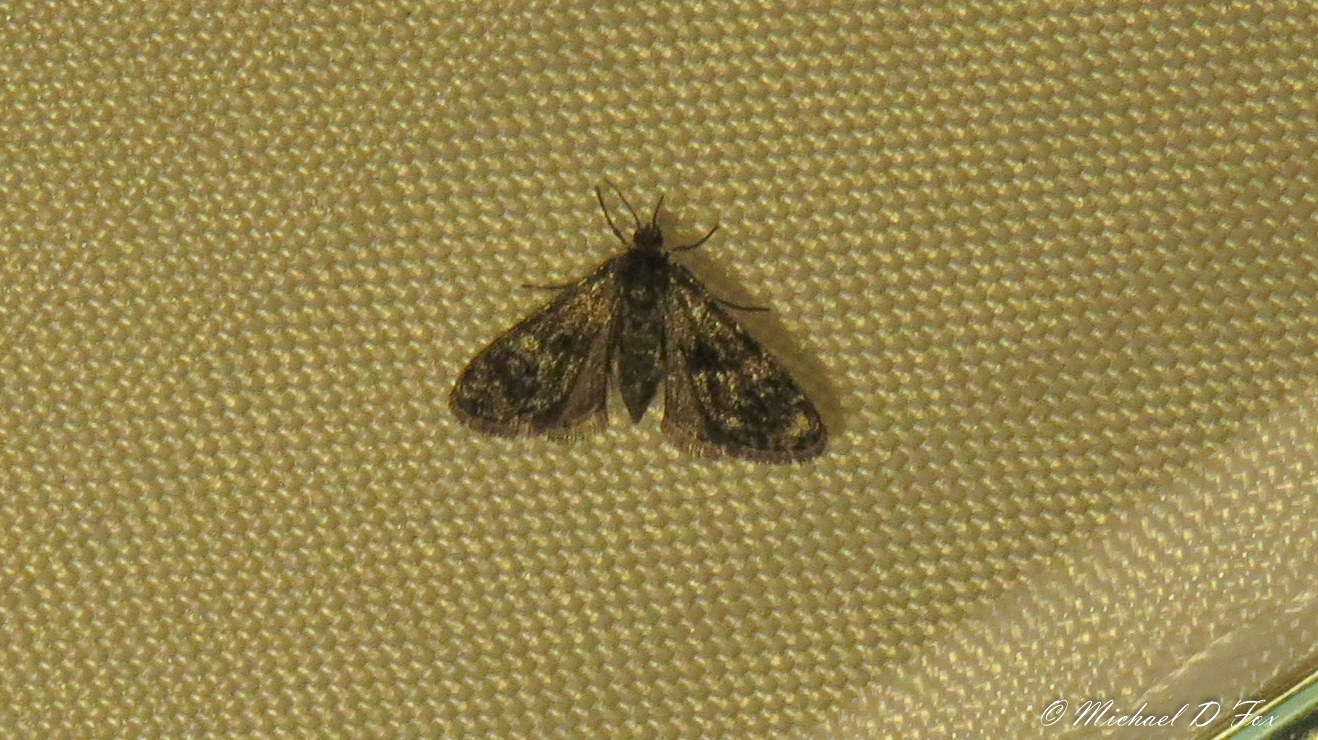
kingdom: Animalia
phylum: Arthropoda
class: Insecta
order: Lepidoptera
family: Crambidae
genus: Elophila
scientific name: Elophila obliteralis
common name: Waterlily leafcutter moth
